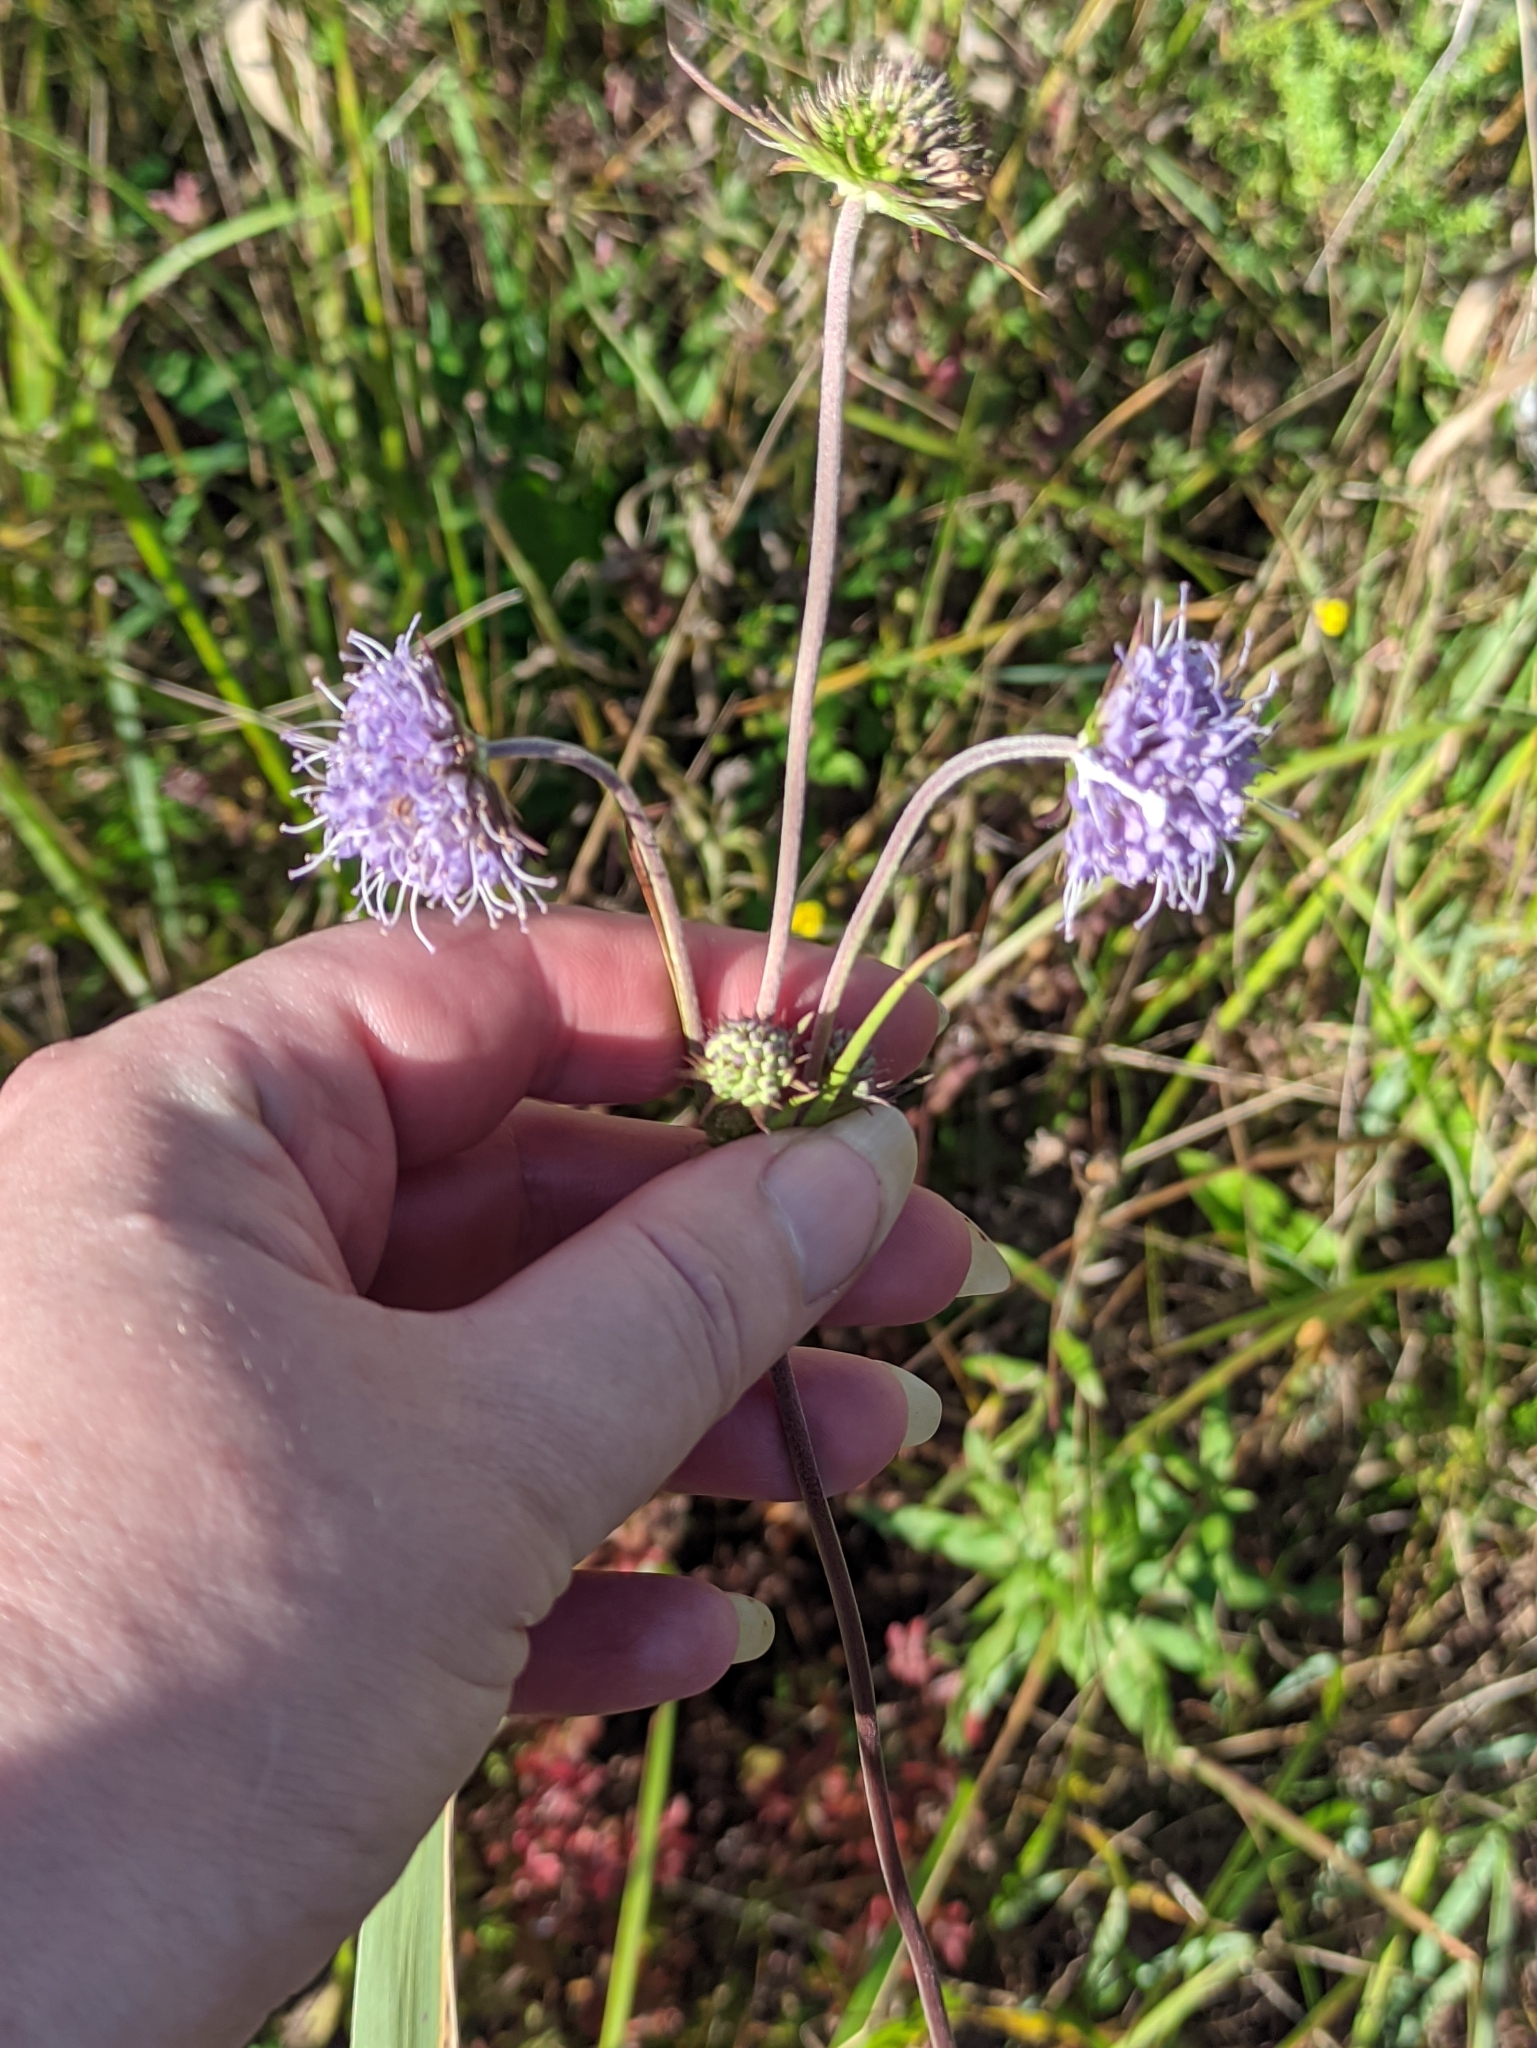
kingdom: Plantae
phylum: Tracheophyta
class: Magnoliopsida
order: Dipsacales
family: Caprifoliaceae
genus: Succisa
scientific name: Succisa pratensis
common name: Devil's-bit
